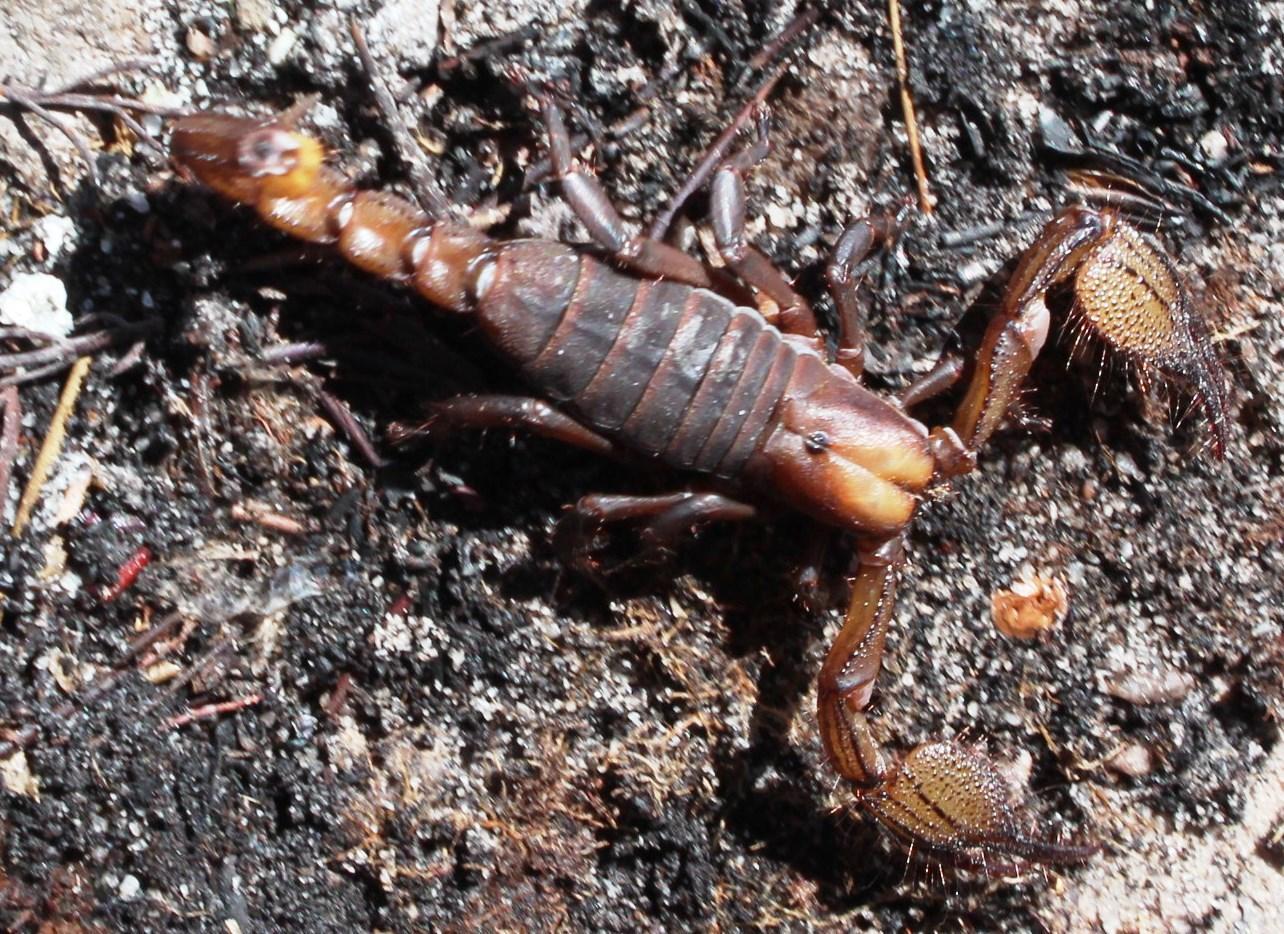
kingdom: Animalia
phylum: Arthropoda
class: Arachnida
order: Scorpiones
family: Scorpionidae
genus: Opistophthalmus
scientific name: Opistophthalmus macer
